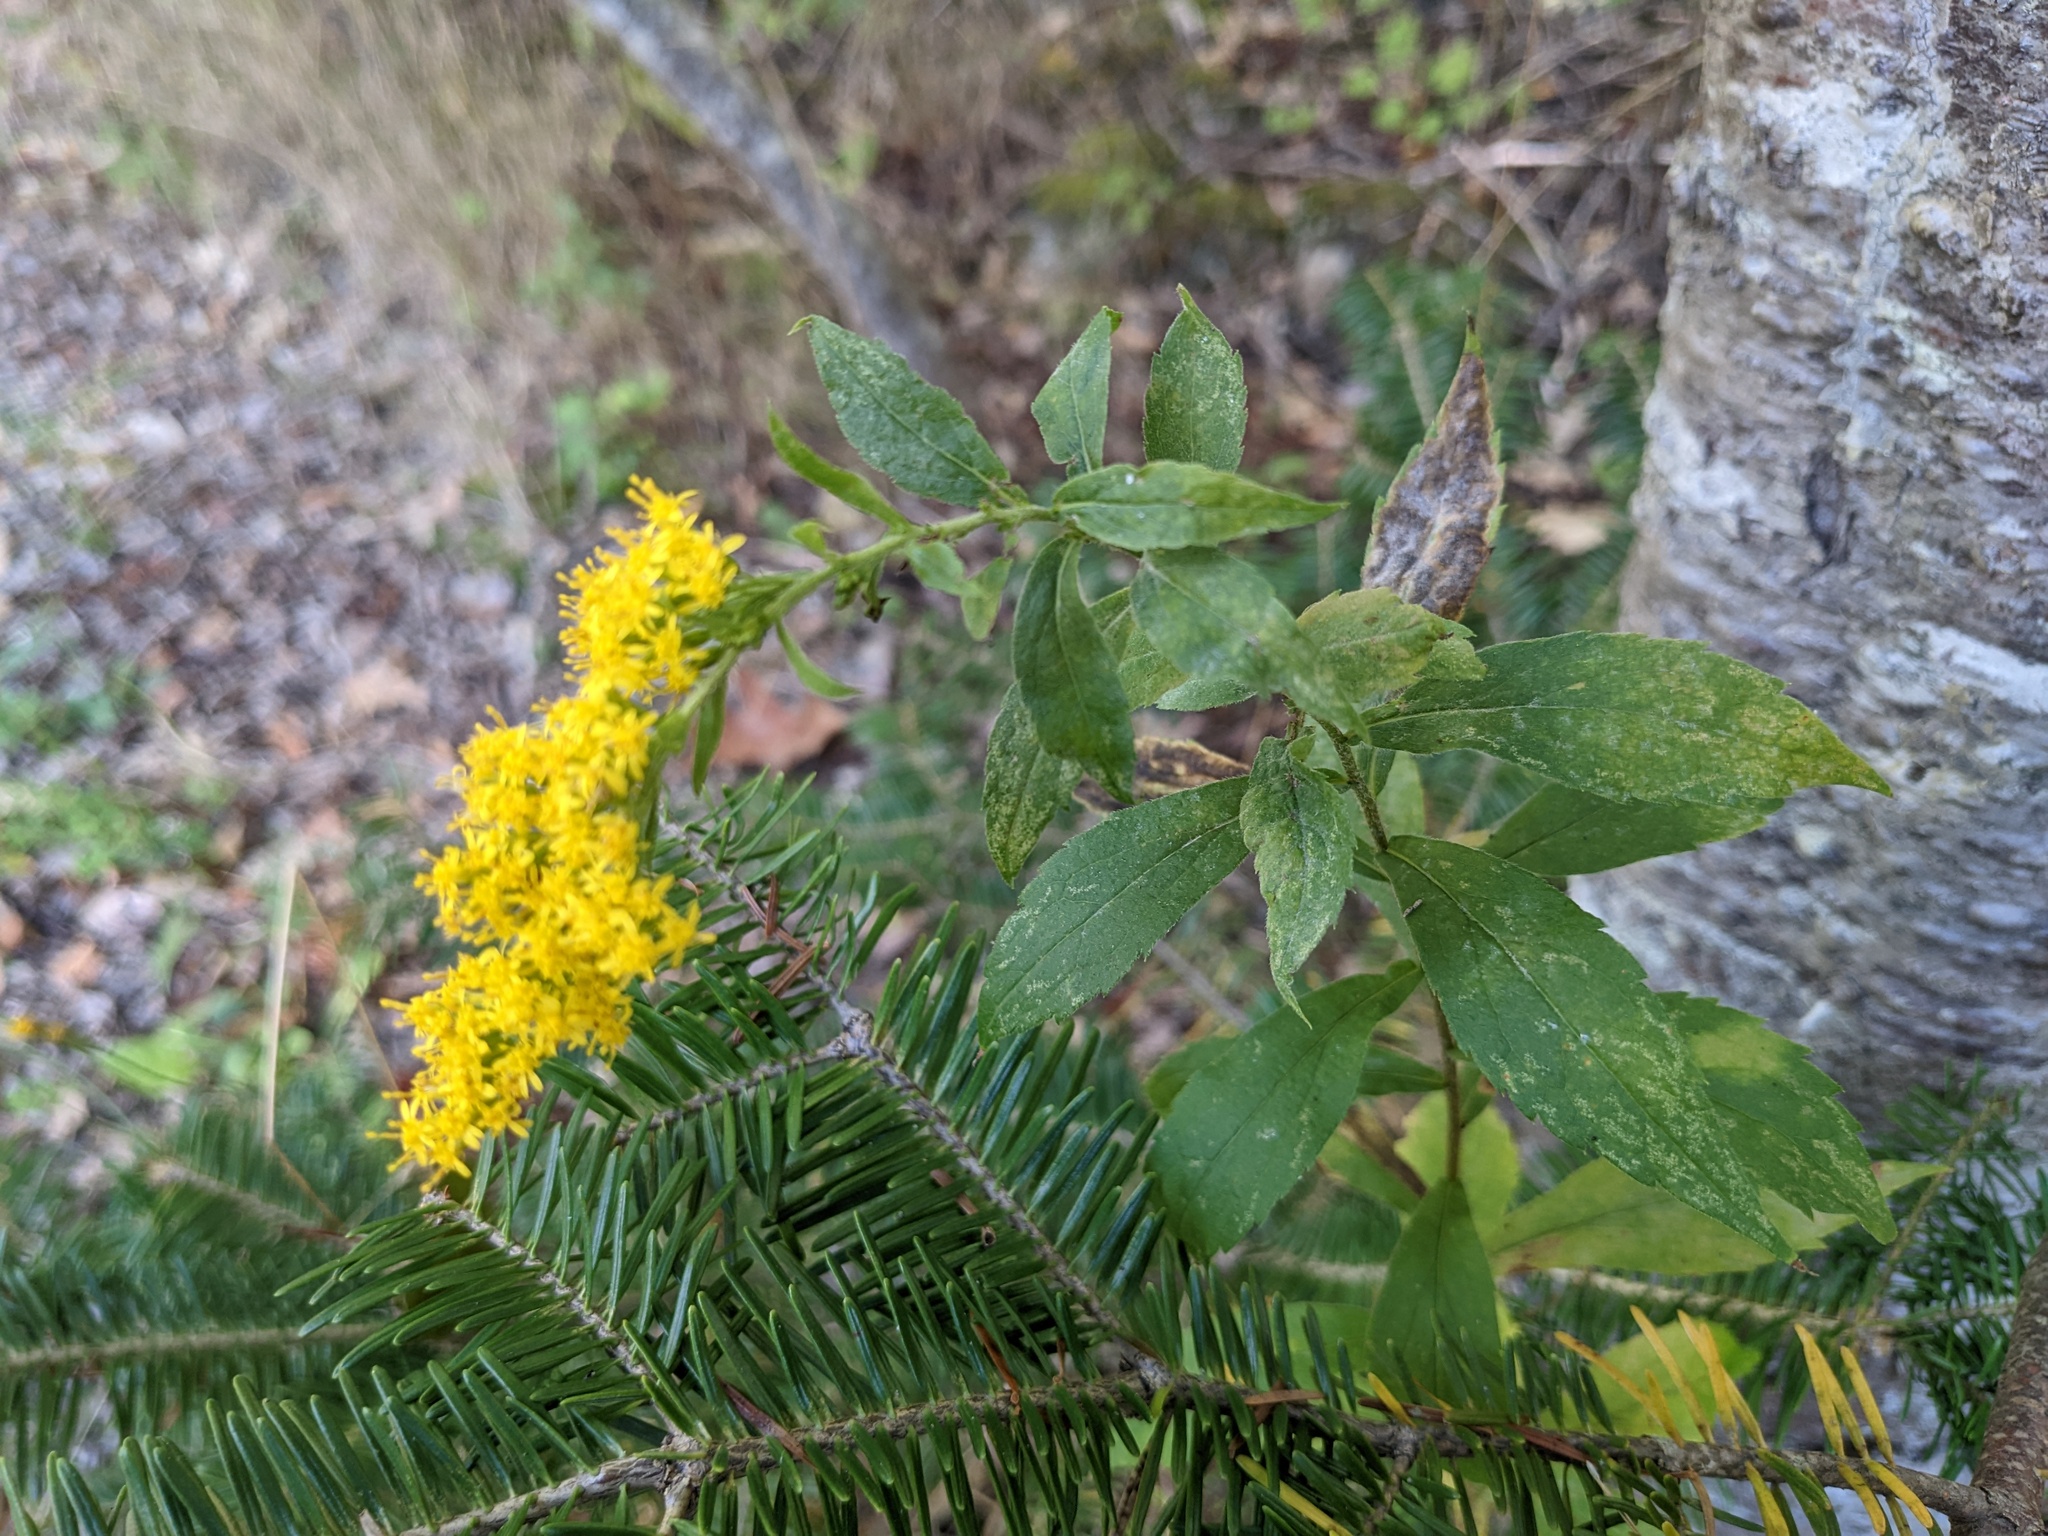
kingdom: Plantae
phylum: Tracheophyta
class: Magnoliopsida
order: Asterales
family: Asteraceae
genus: Solidago
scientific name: Solidago rugosa
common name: Rough-stemmed goldenrod
